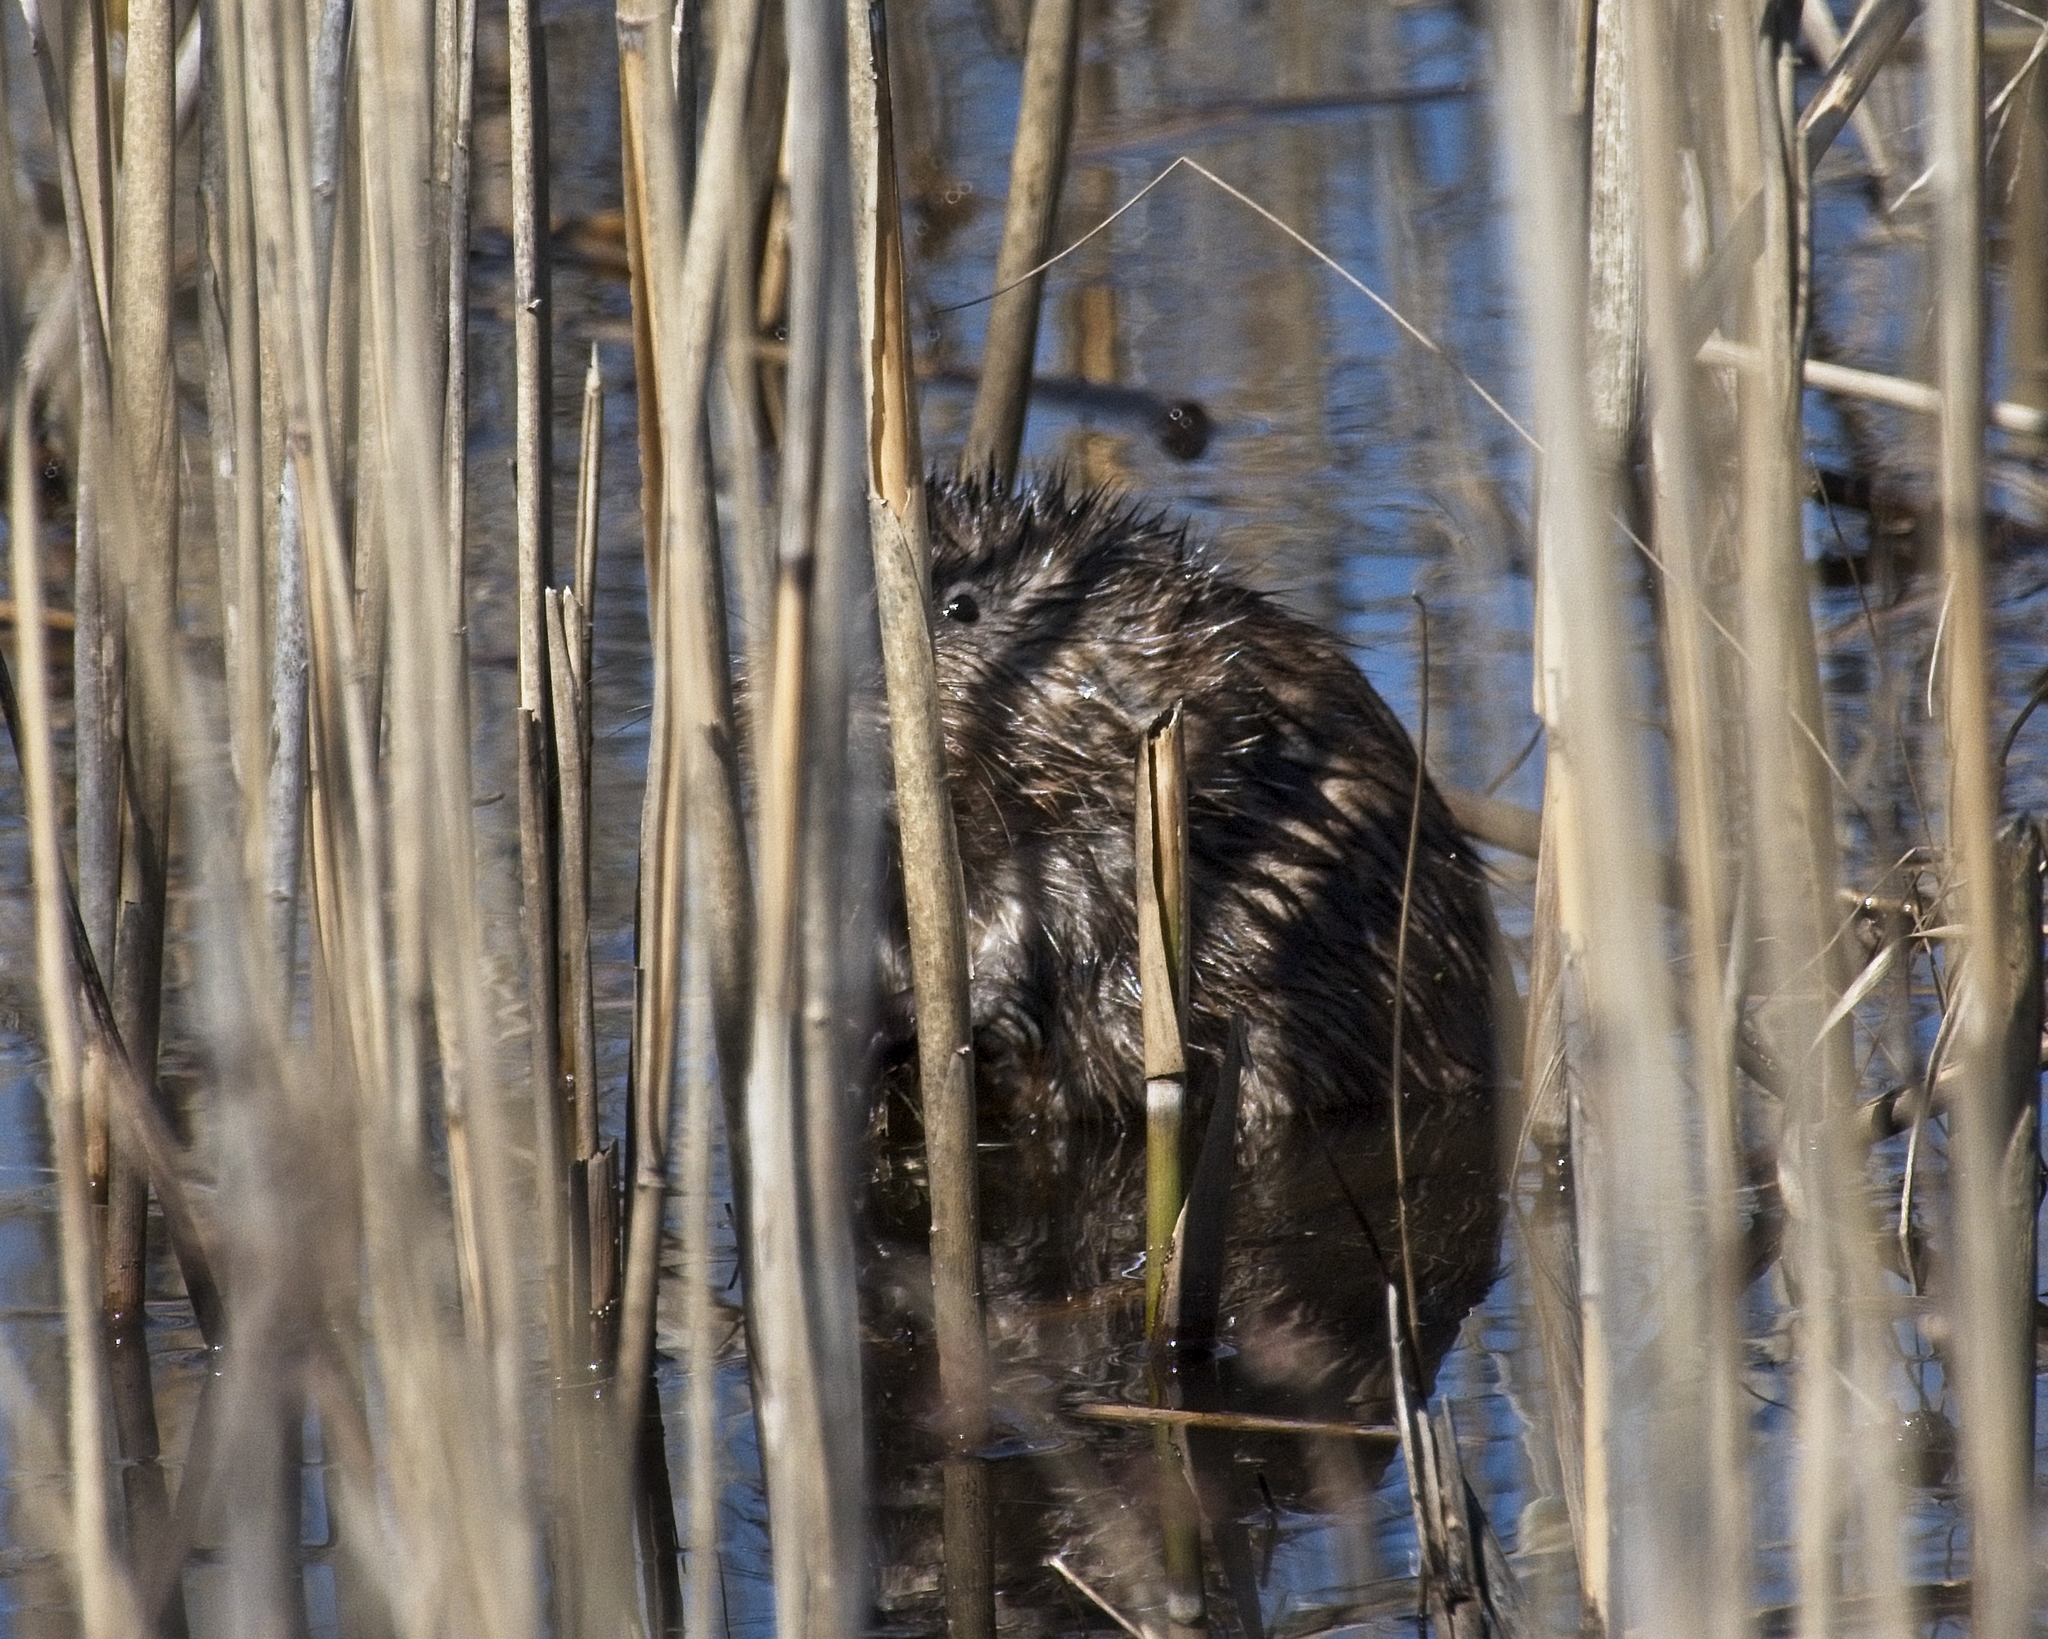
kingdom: Animalia
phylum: Chordata
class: Mammalia
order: Rodentia
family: Cricetidae
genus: Ondatra
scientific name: Ondatra zibethicus
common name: Muskrat
